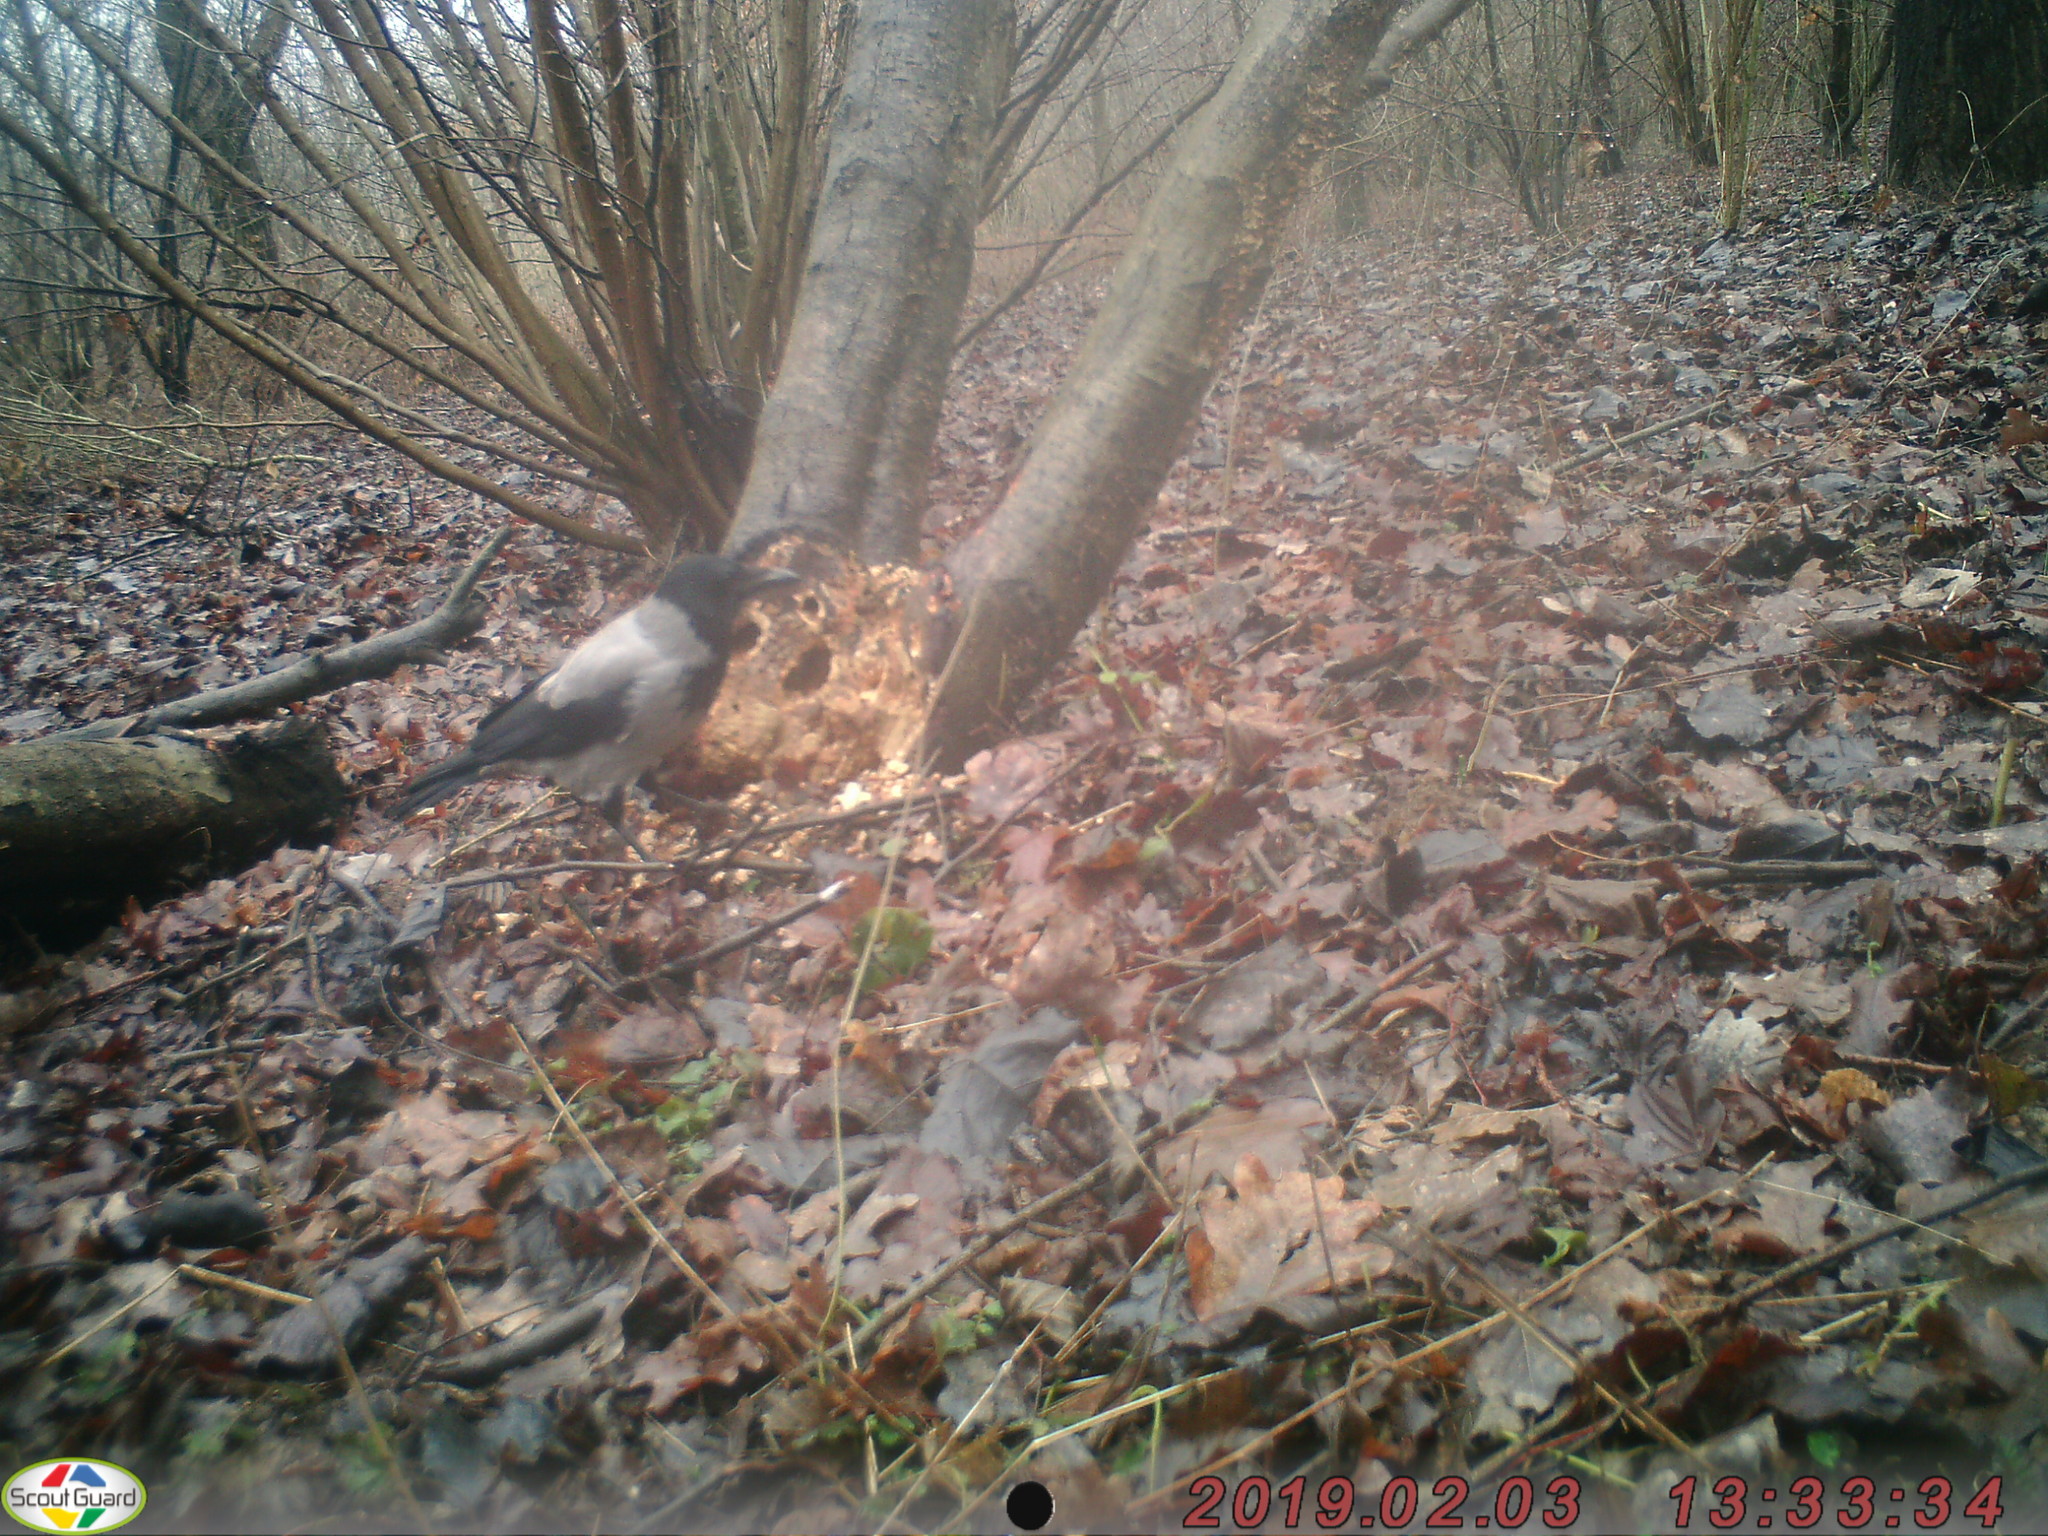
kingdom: Animalia
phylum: Chordata
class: Aves
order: Passeriformes
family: Corvidae
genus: Corvus
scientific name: Corvus cornix
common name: Hooded crow
